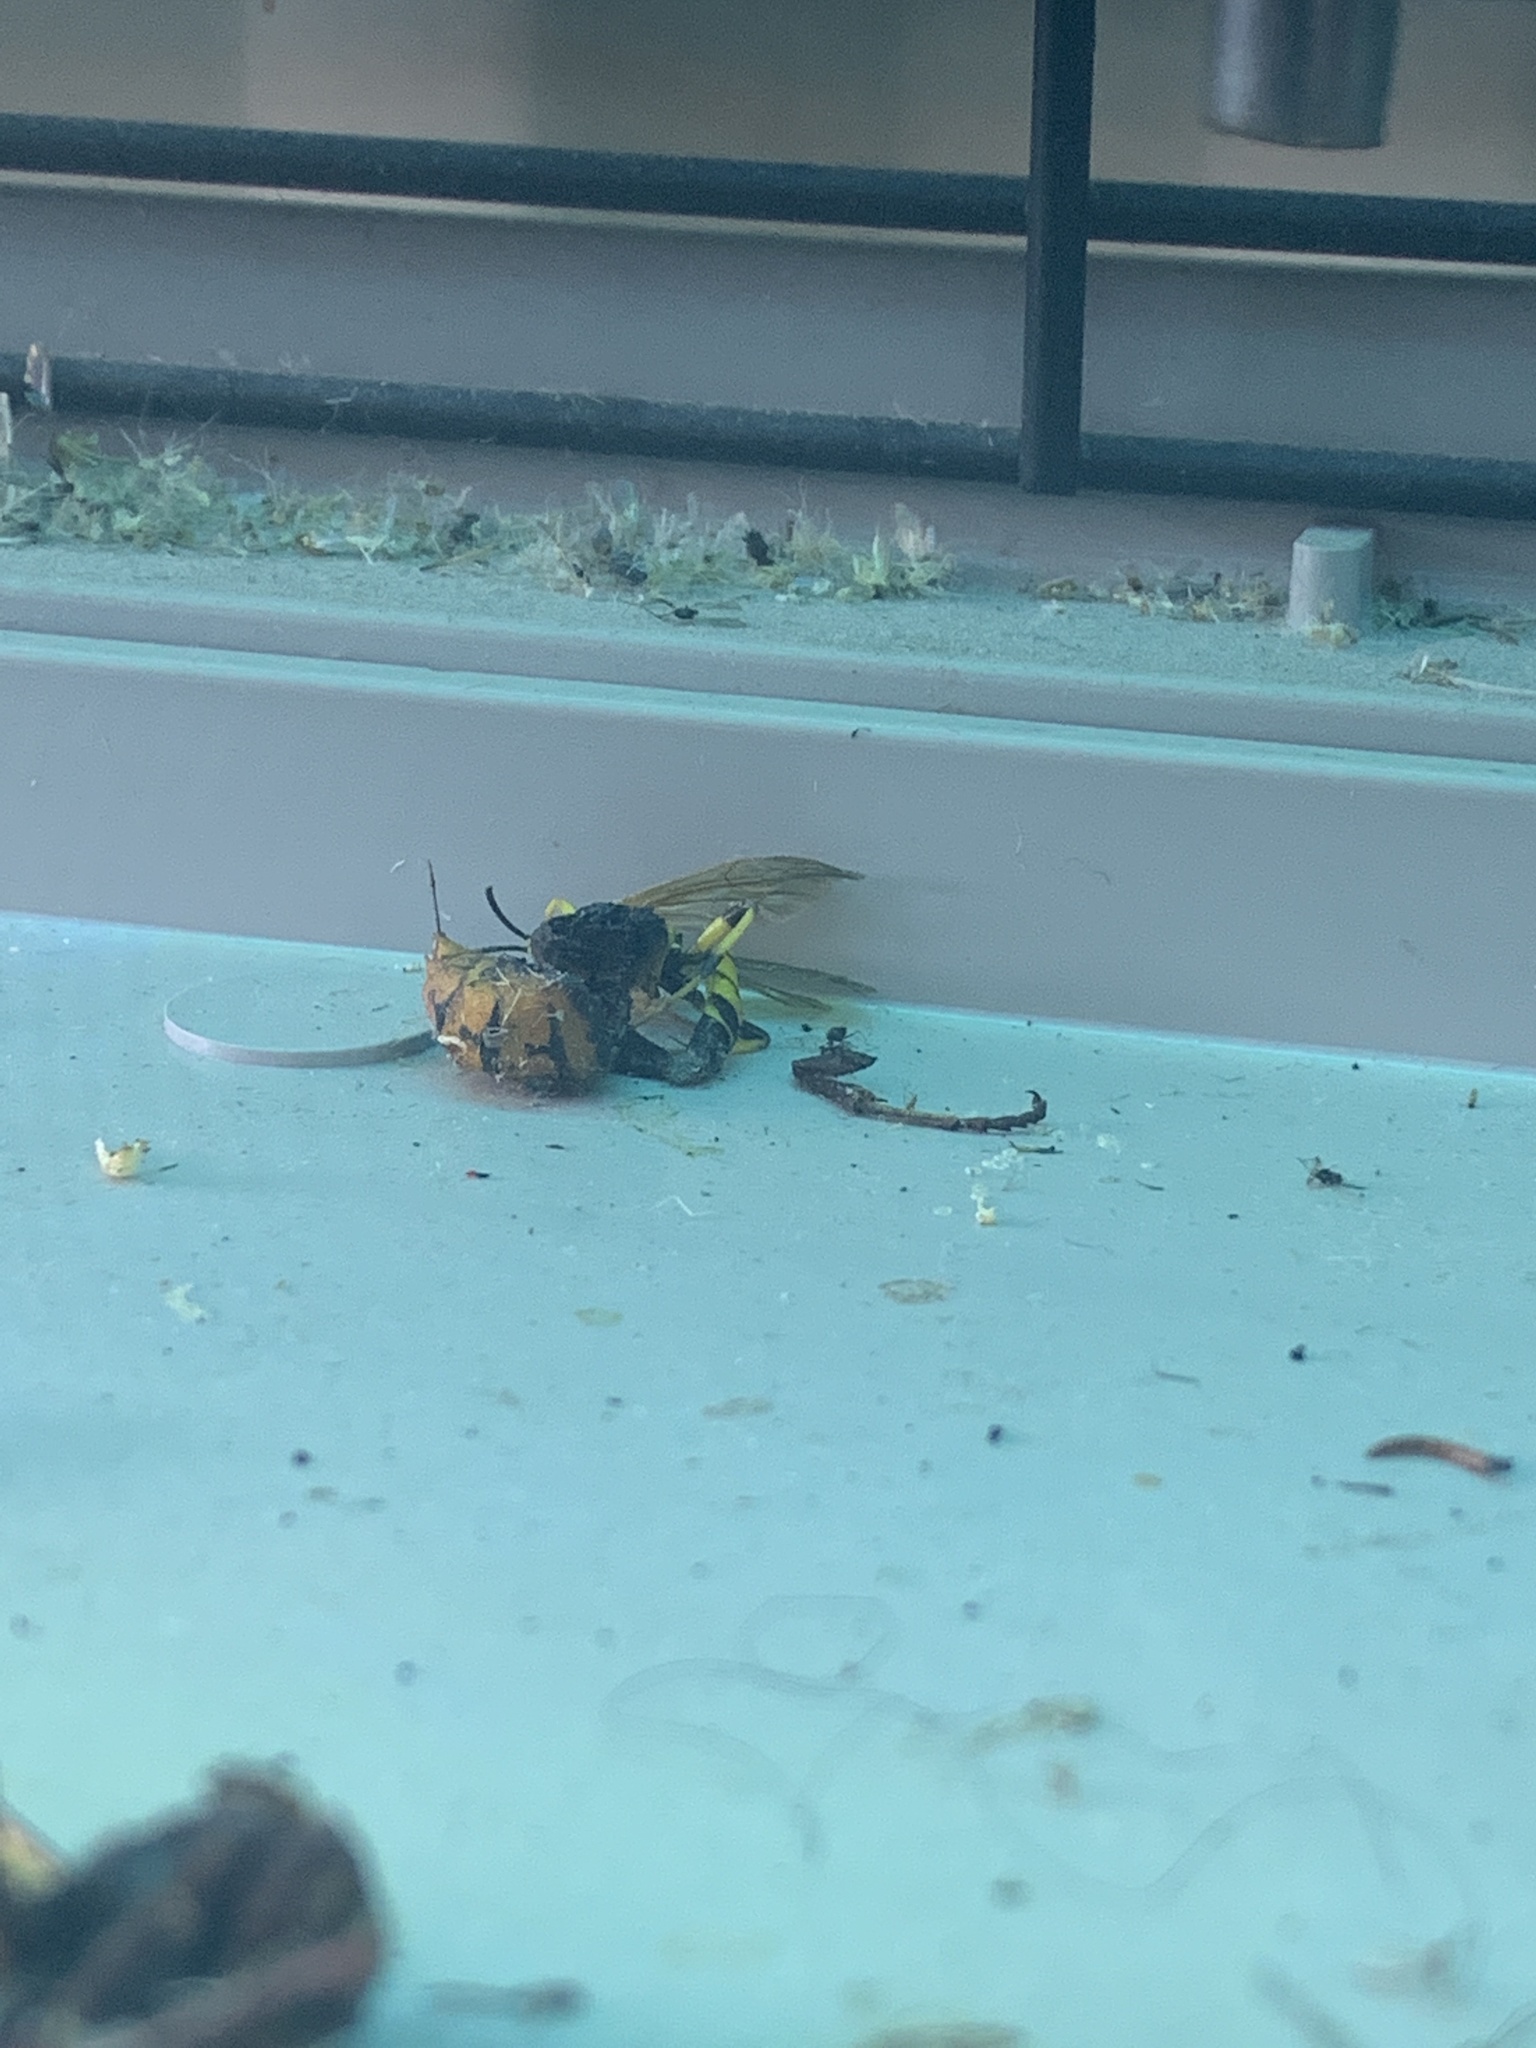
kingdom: Animalia
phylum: Arthropoda
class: Insecta
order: Hymenoptera
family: Vespidae
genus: Vespa
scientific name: Vespa crabro
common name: Hornet
